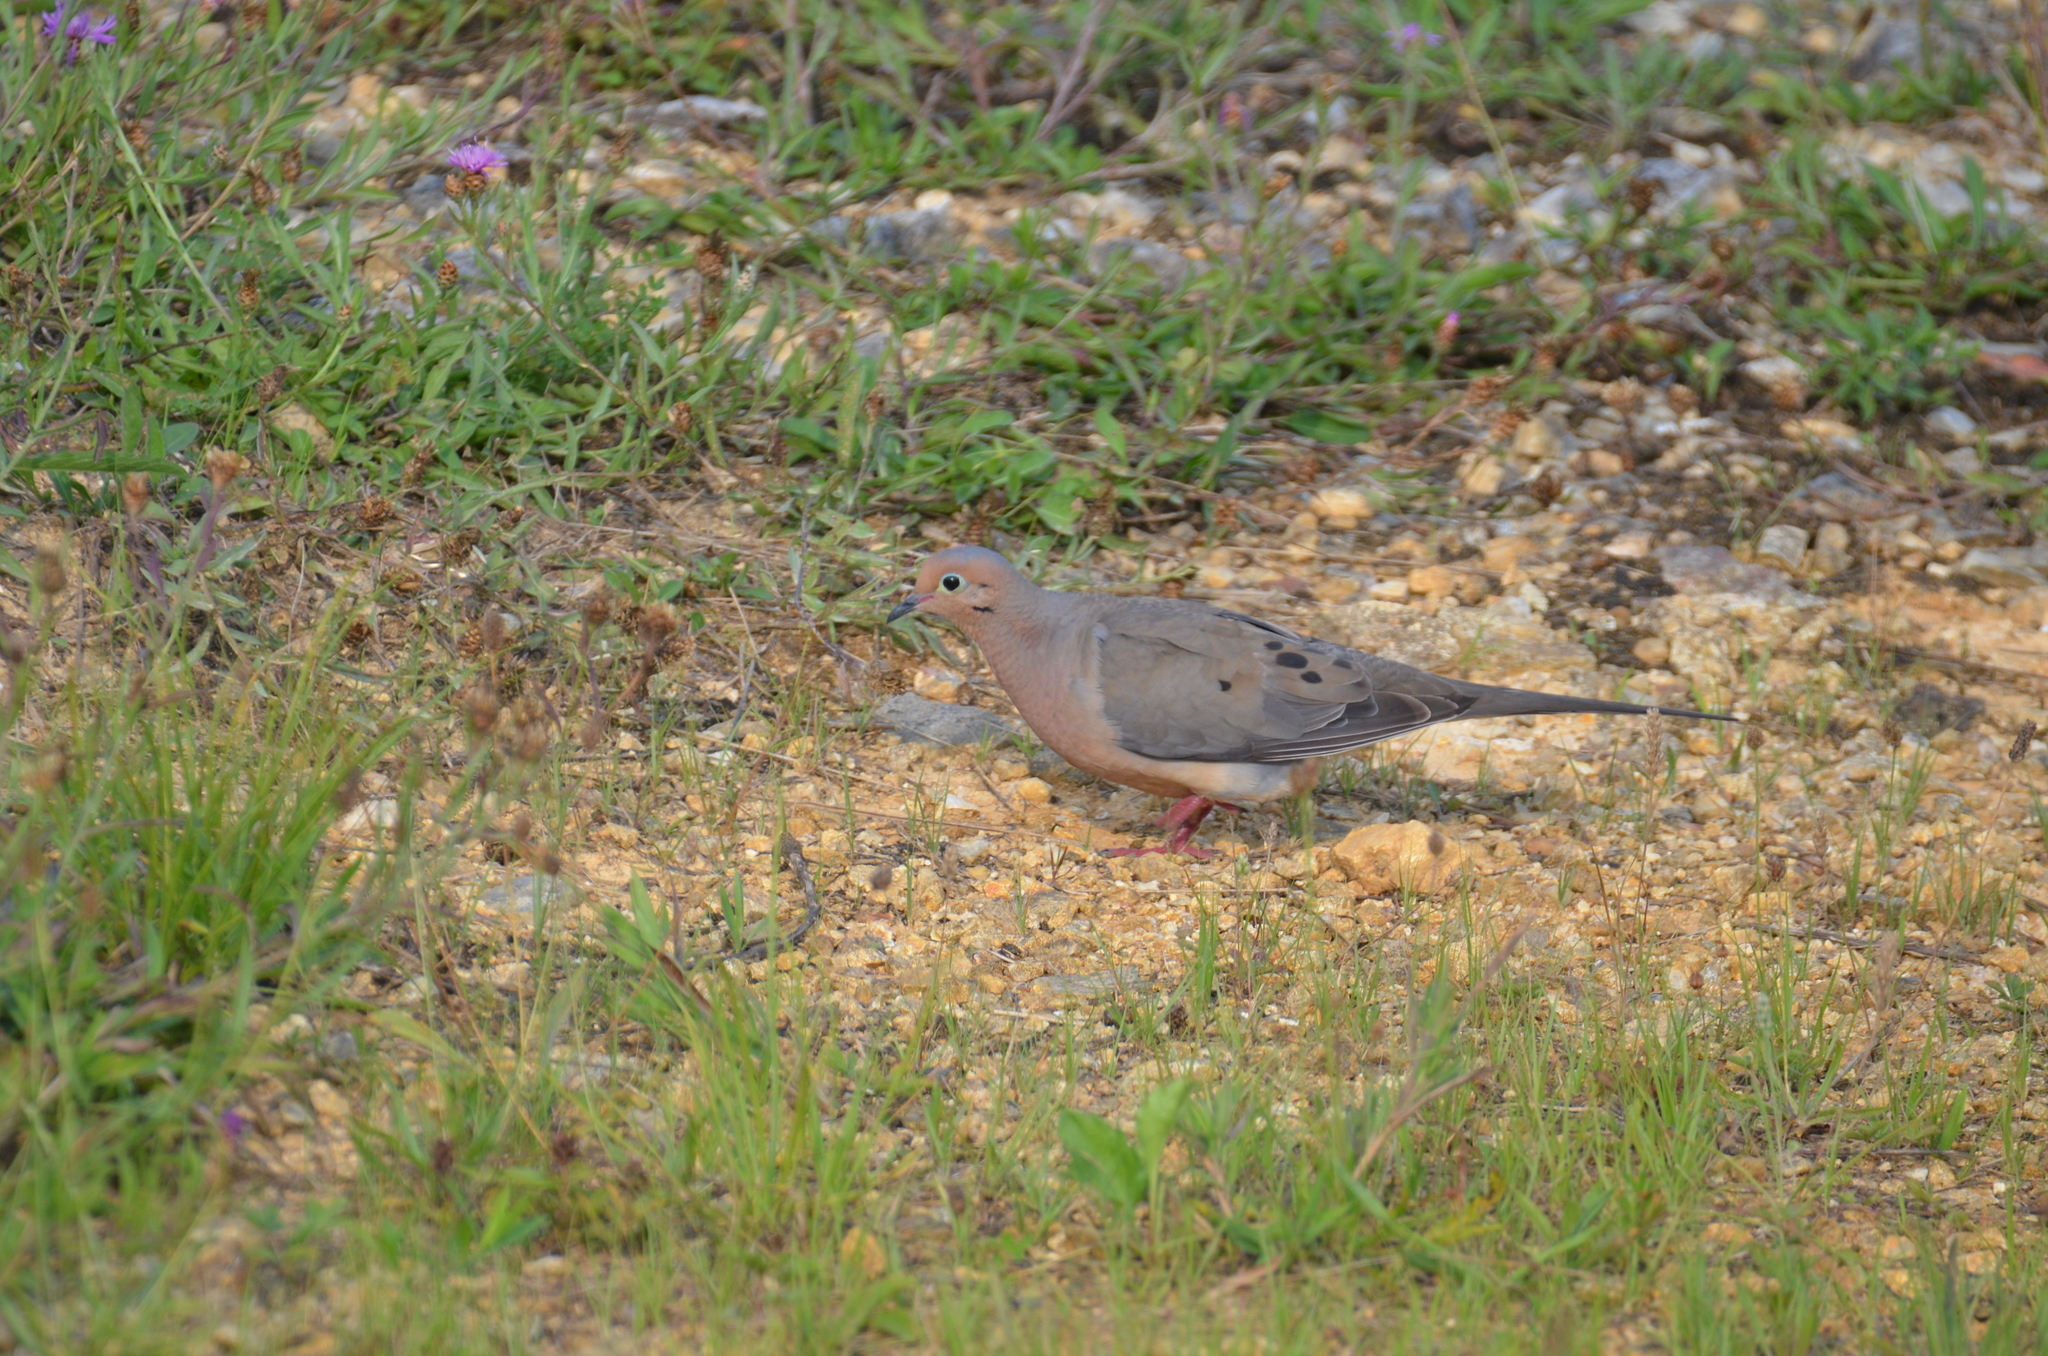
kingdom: Animalia
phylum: Chordata
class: Aves
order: Columbiformes
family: Columbidae
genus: Zenaida
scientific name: Zenaida macroura
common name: Mourning dove
